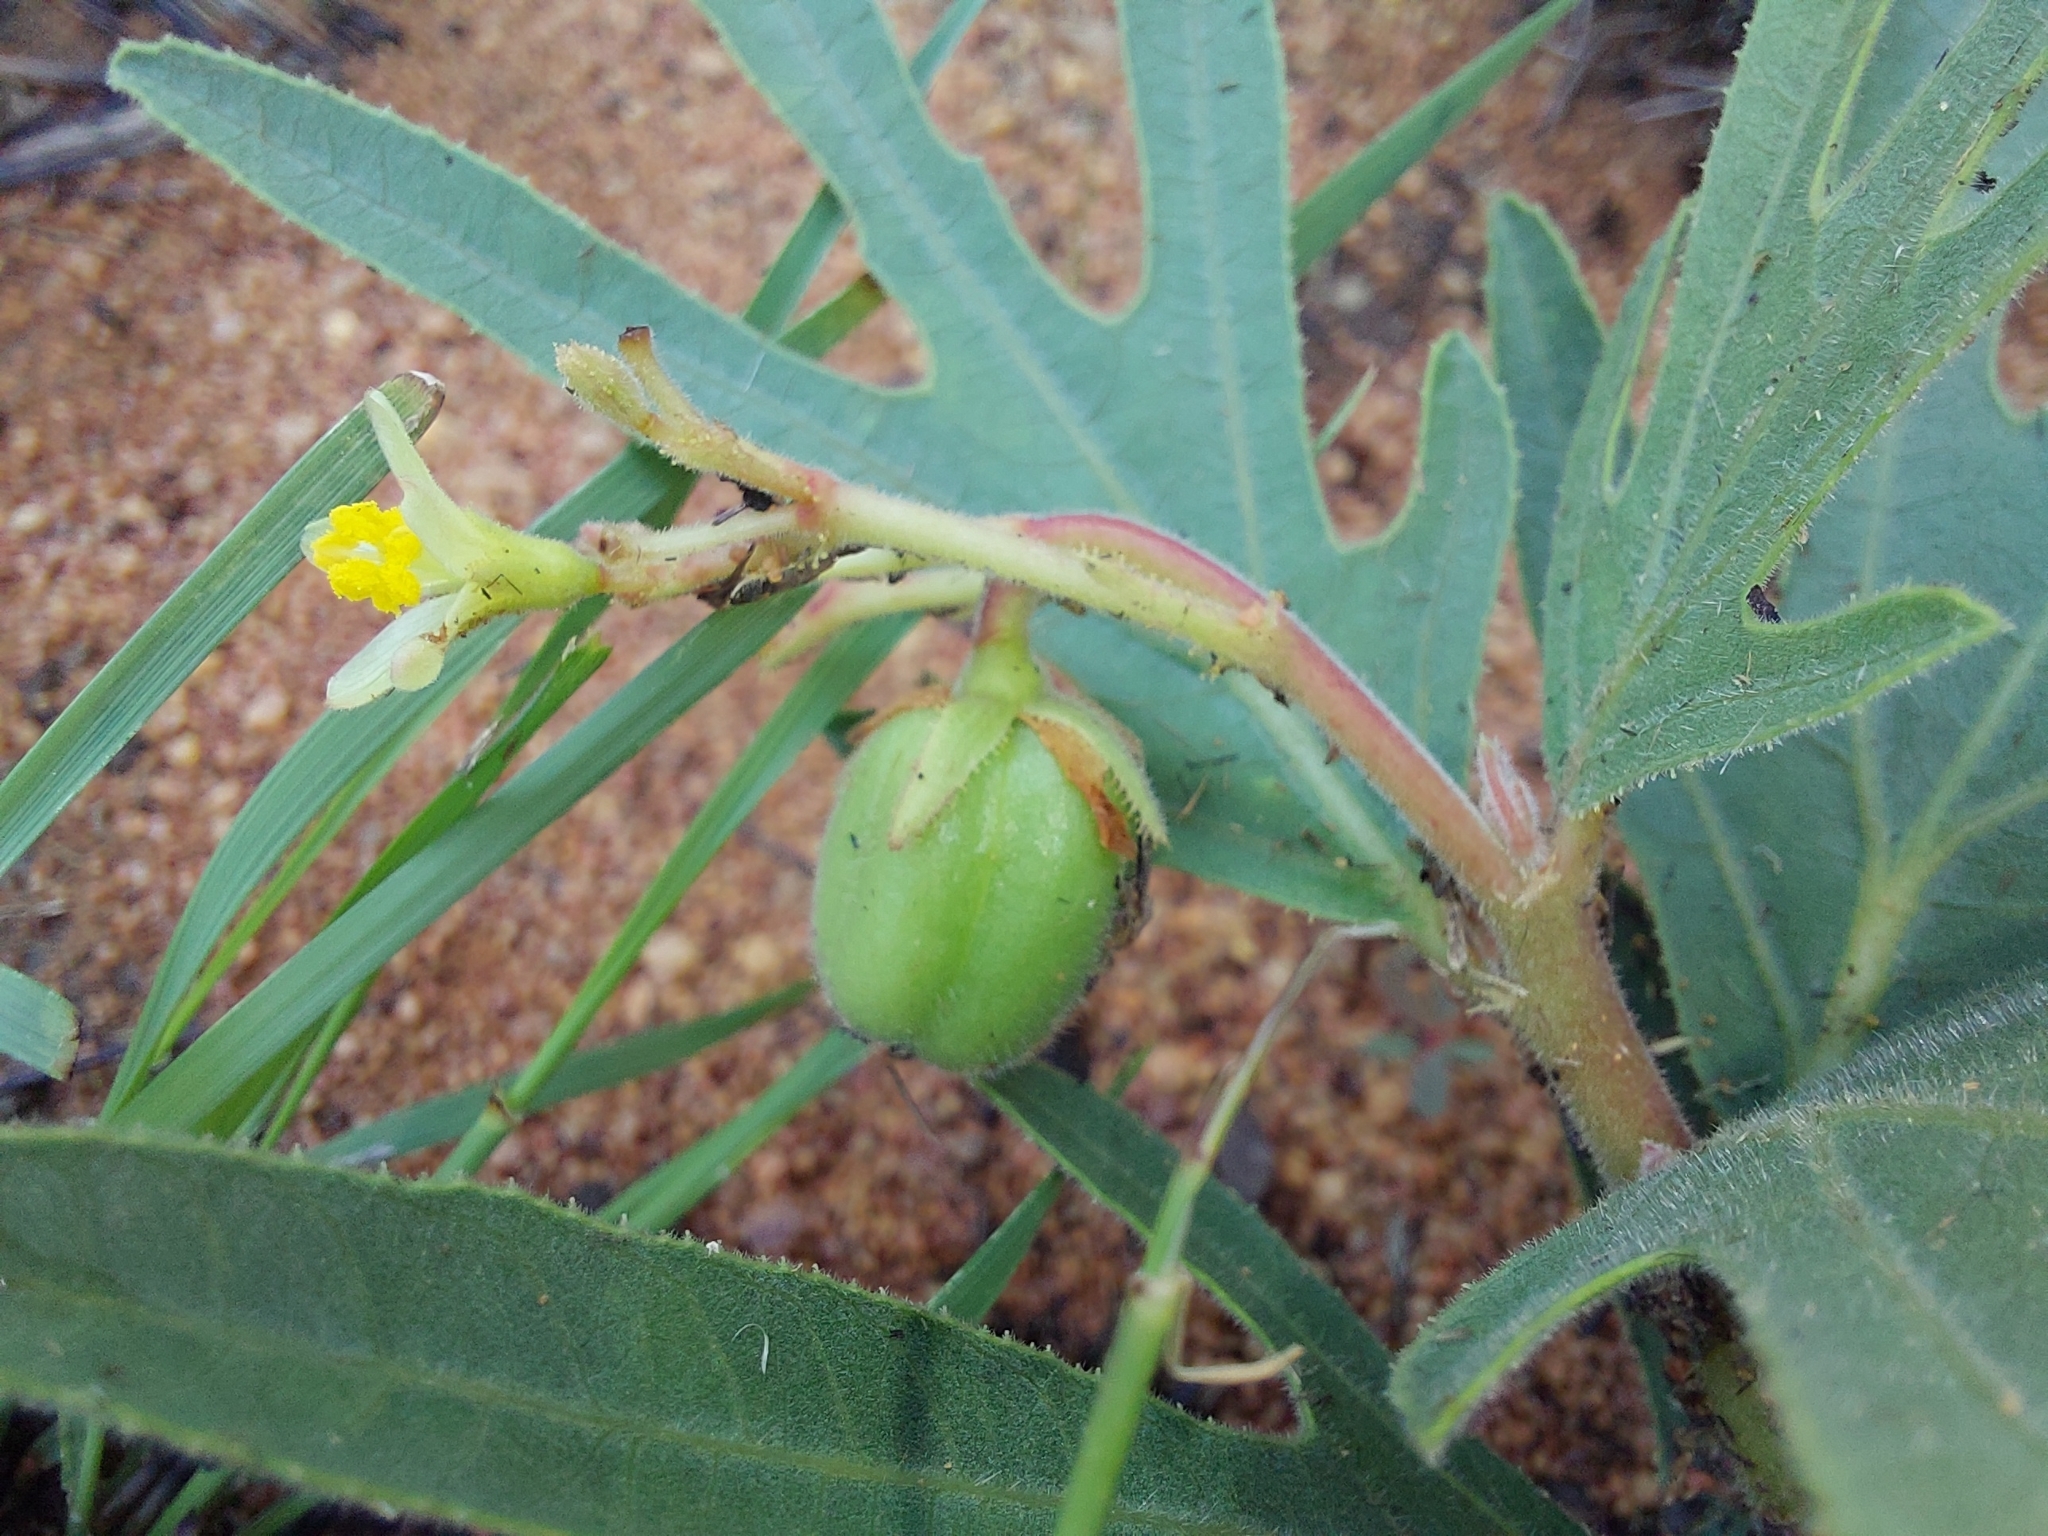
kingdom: Plantae
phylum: Tracheophyta
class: Magnoliopsida
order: Malpighiales
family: Euphorbiaceae
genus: Jatropha
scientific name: Jatropha zeyheri
